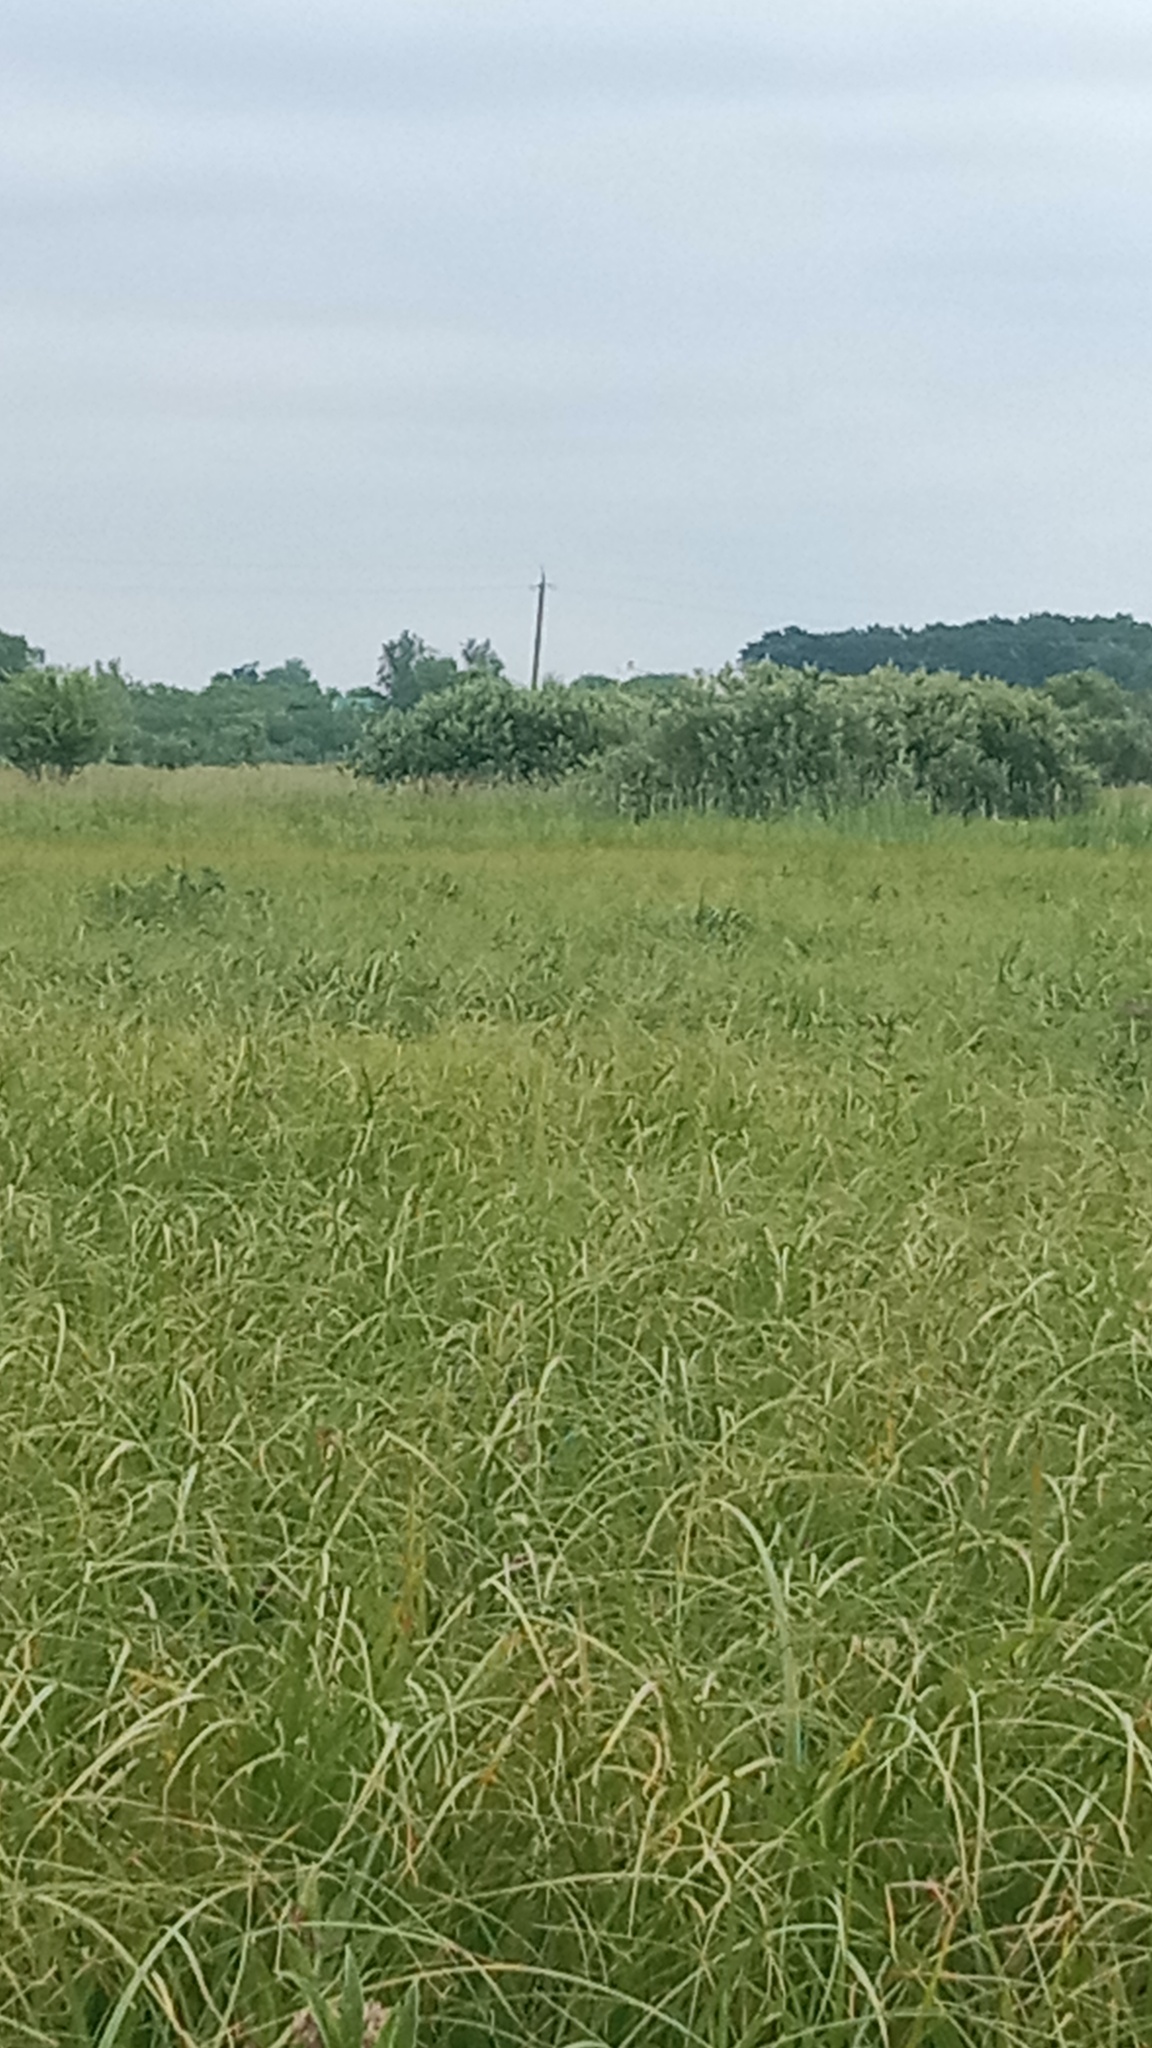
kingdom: Animalia
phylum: Chordata
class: Aves
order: Pelecaniformes
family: Ardeidae
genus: Ardea
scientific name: Ardea alba
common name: Great egret
